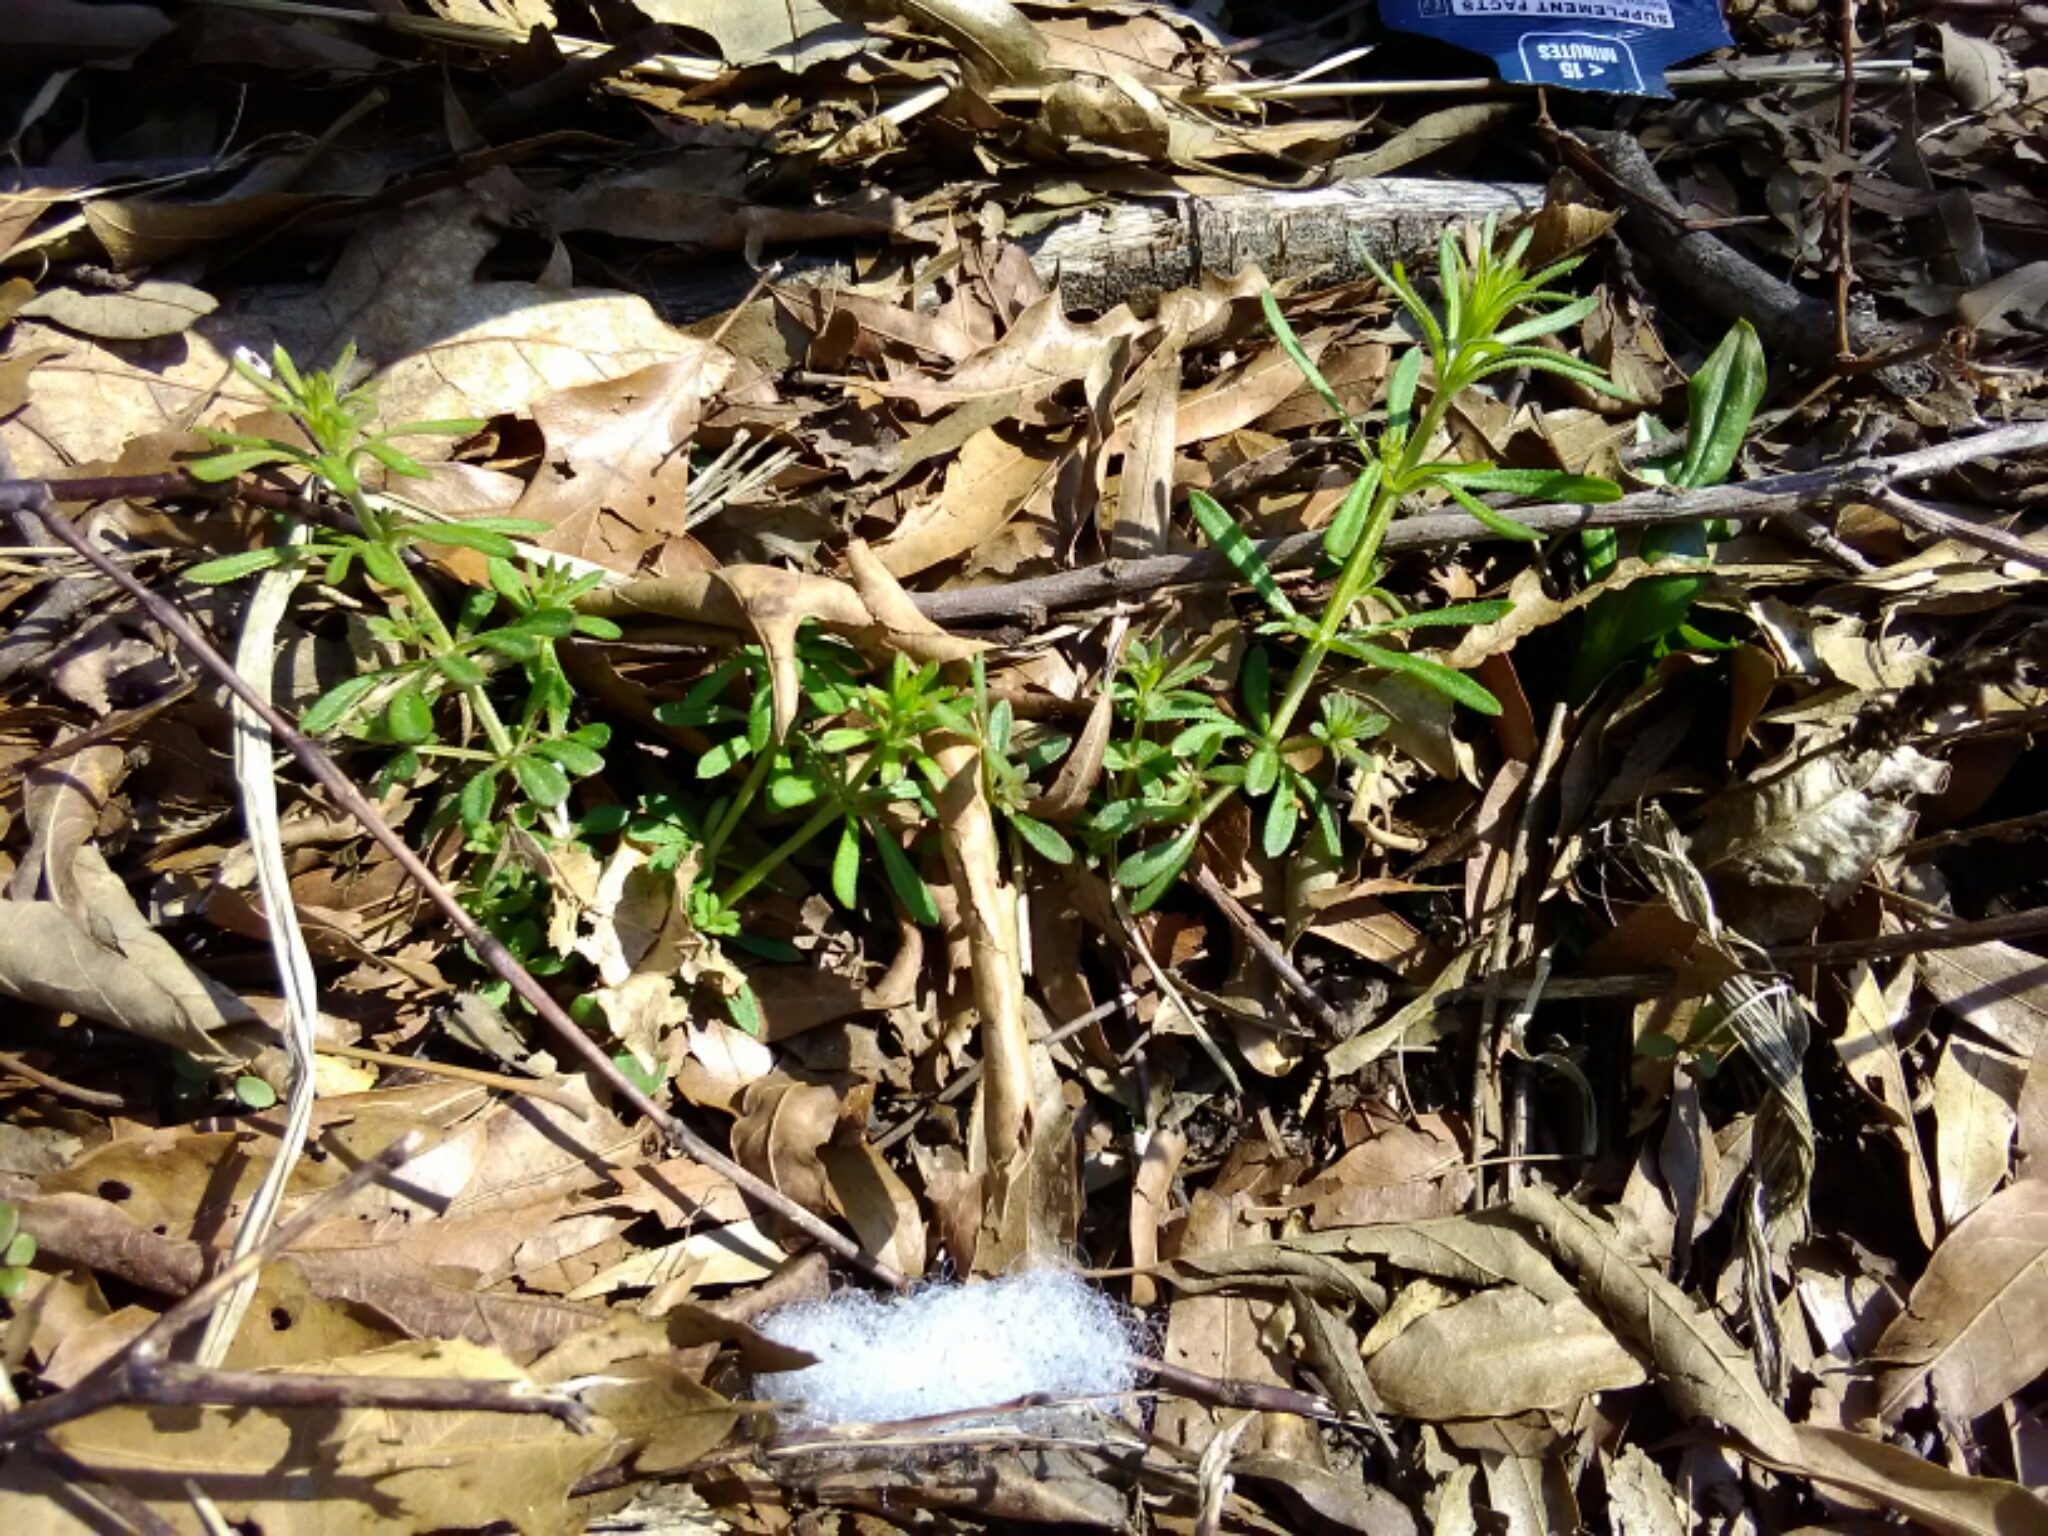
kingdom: Plantae
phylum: Tracheophyta
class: Magnoliopsida
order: Gentianales
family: Rubiaceae
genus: Galium
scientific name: Galium aparine
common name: Cleavers
